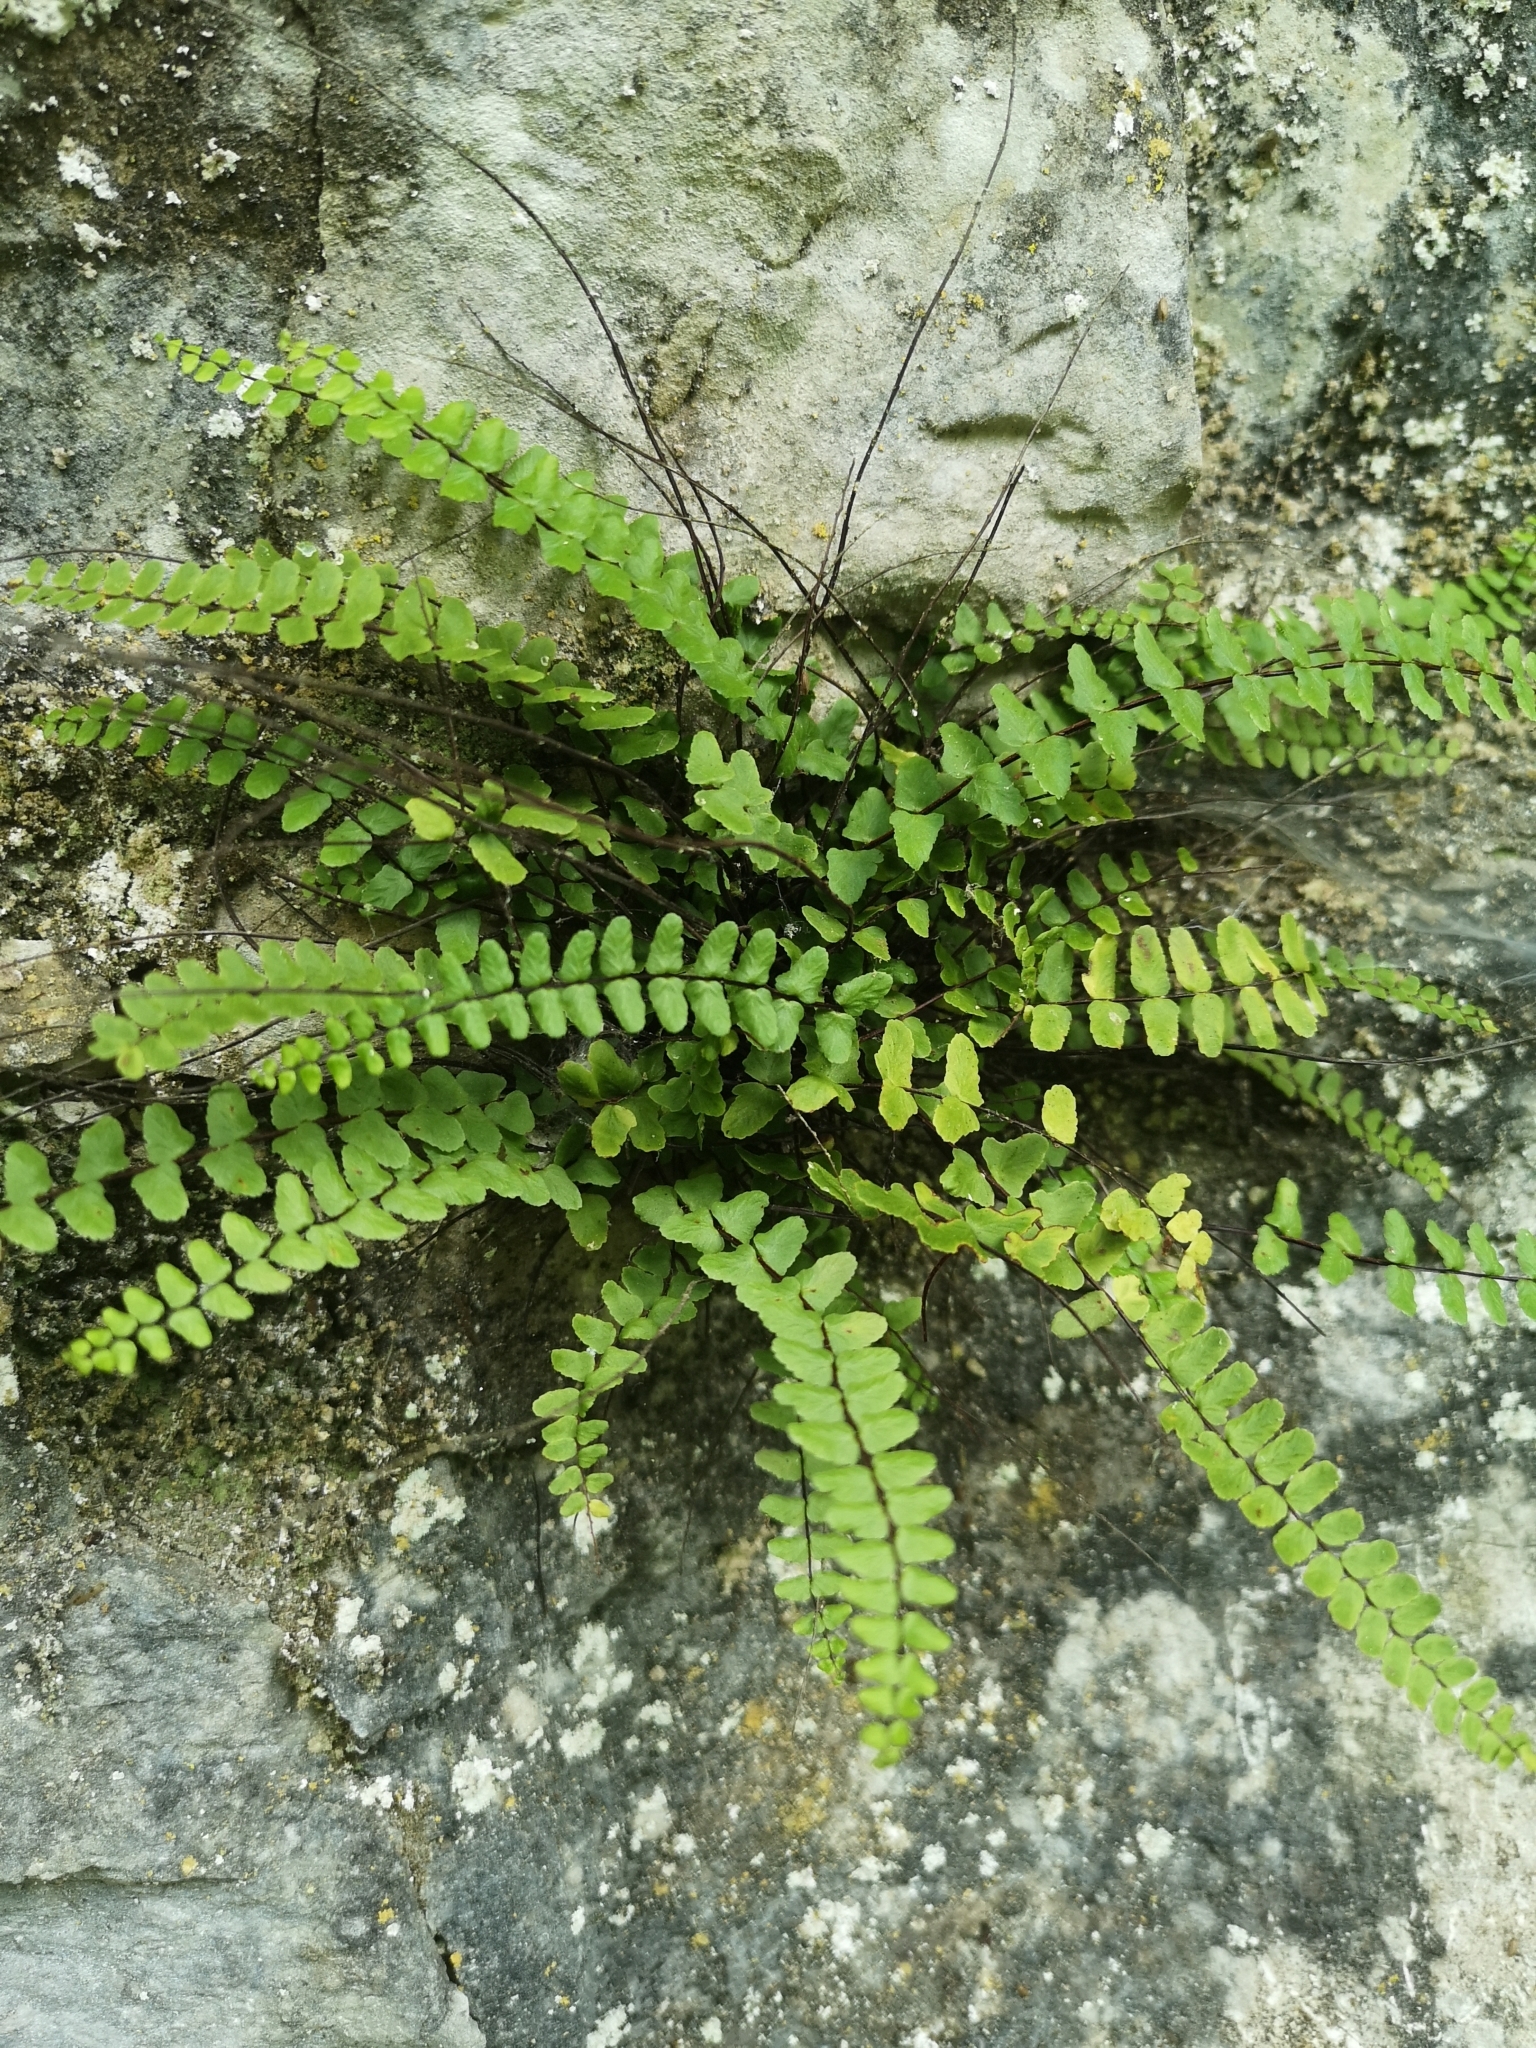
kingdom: Plantae
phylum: Tracheophyta
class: Polypodiopsida
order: Polypodiales
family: Aspleniaceae
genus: Asplenium
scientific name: Asplenium trichomanes
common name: Maidenhair spleenwort
